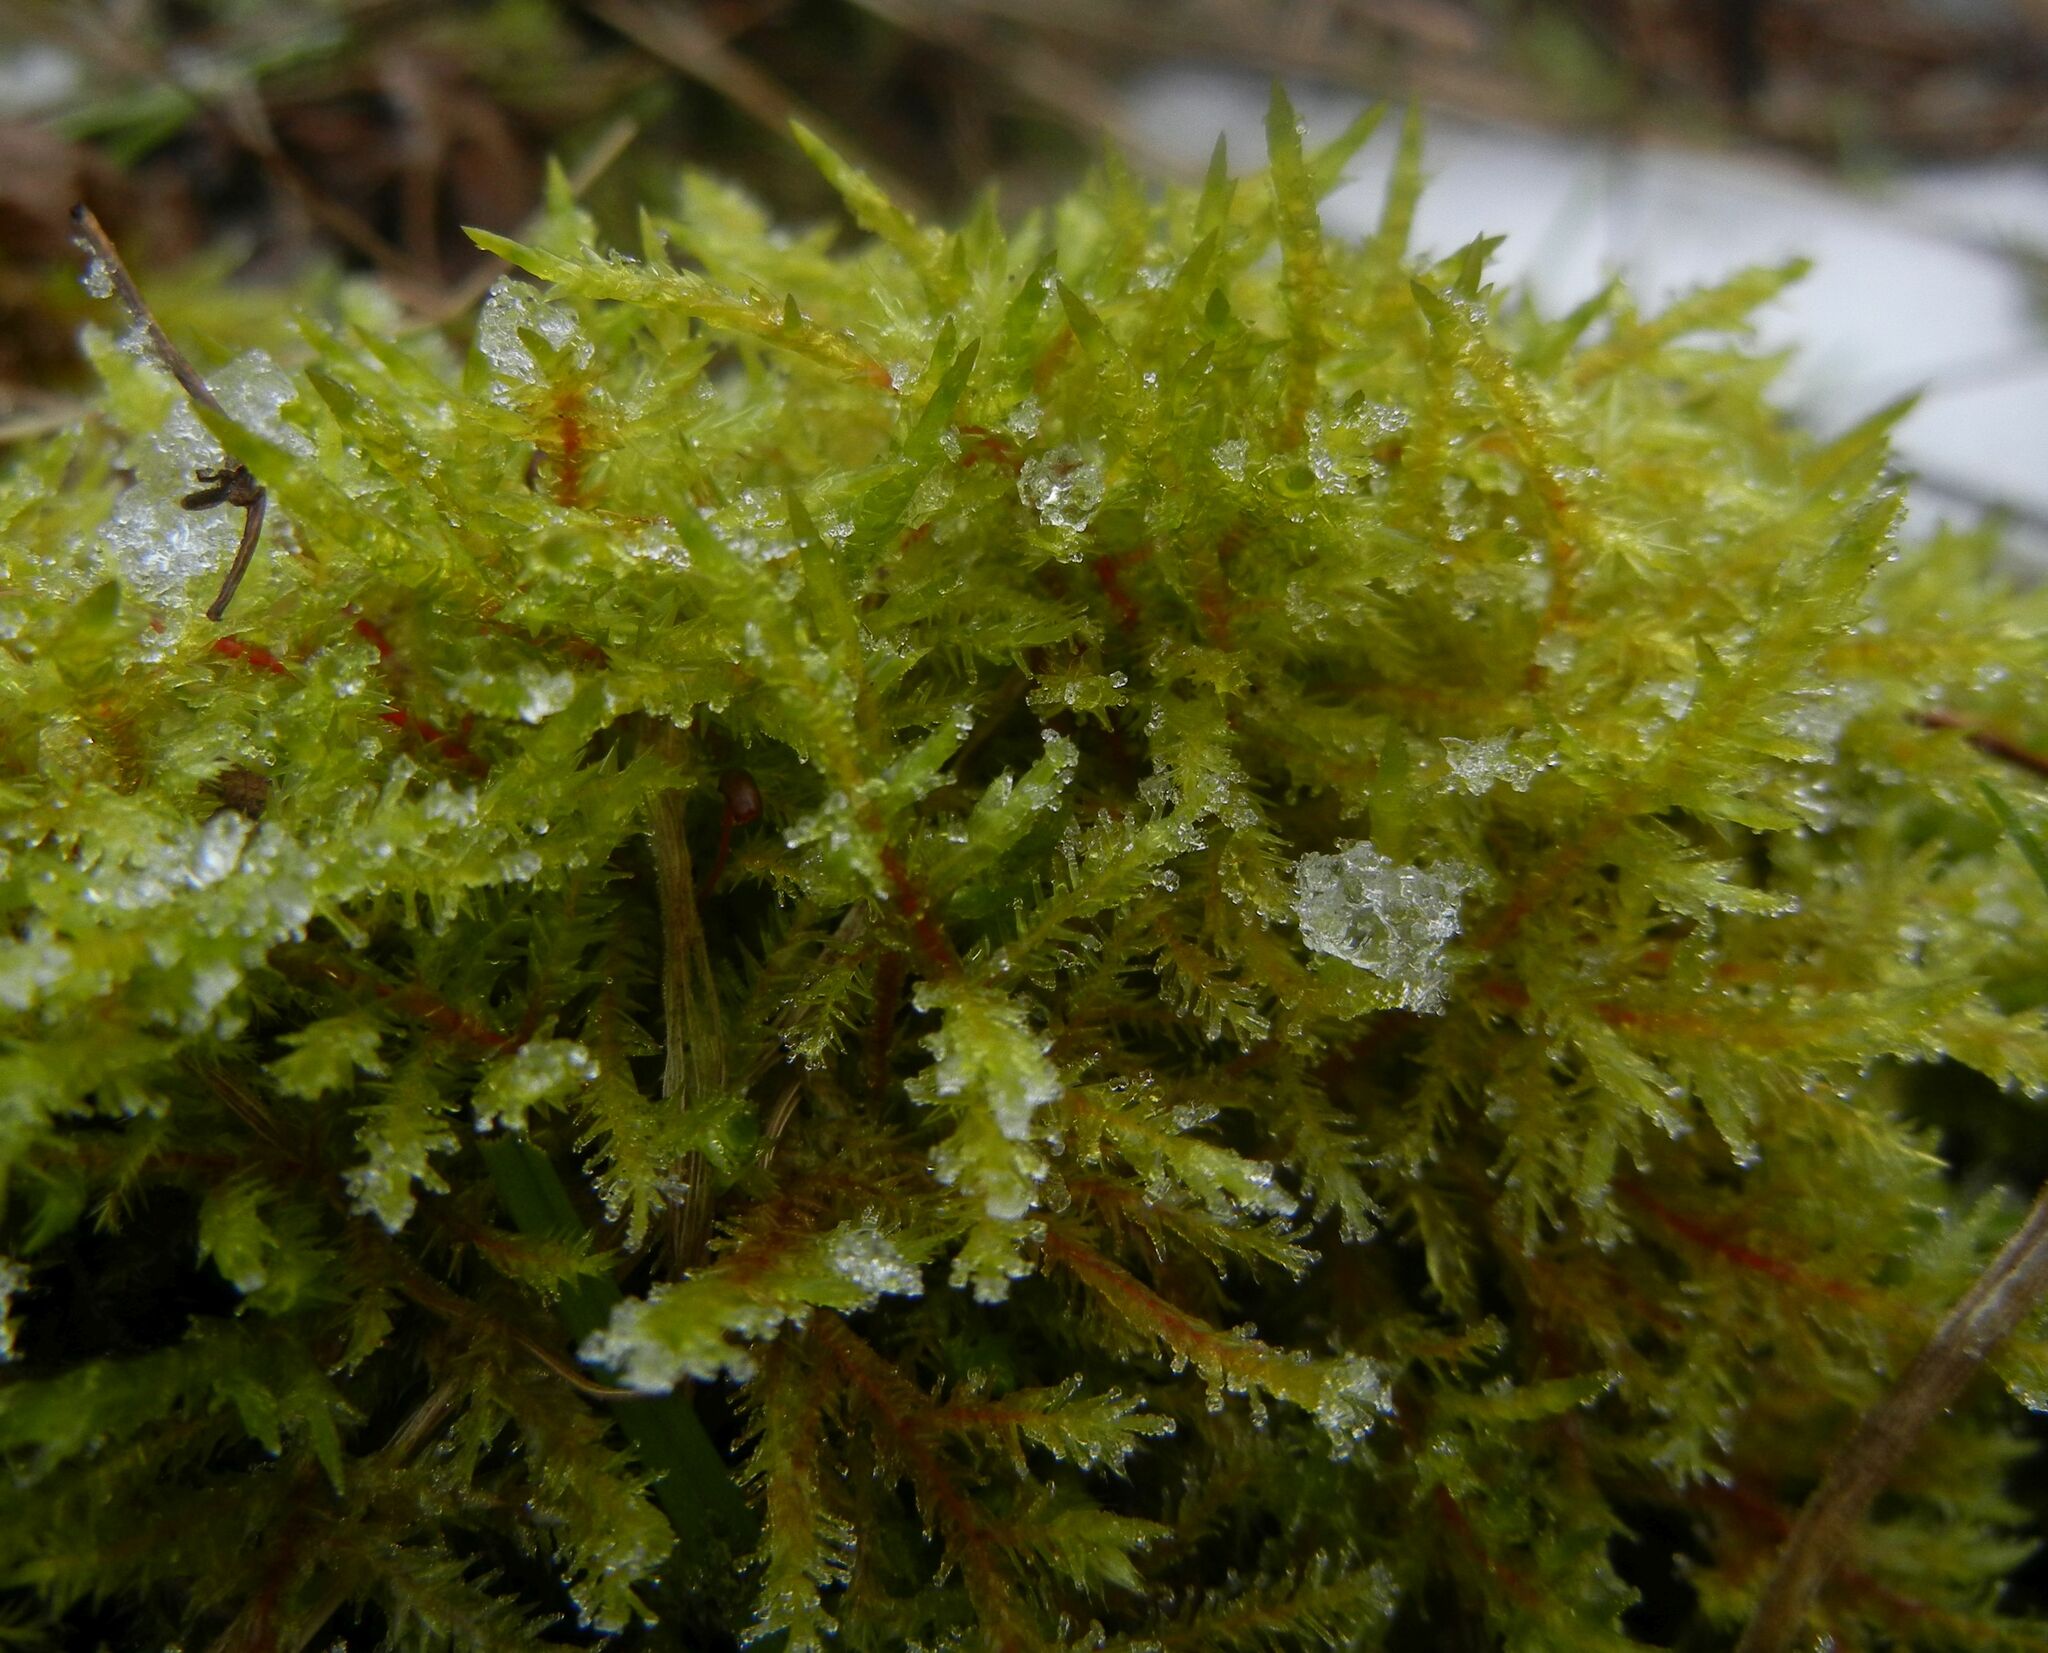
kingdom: Plantae
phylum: Bryophyta
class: Bryopsida
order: Hypnales
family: Pylaisiaceae
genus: Calliergonella
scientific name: Calliergonella cuspidata
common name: Common large wetland moss
